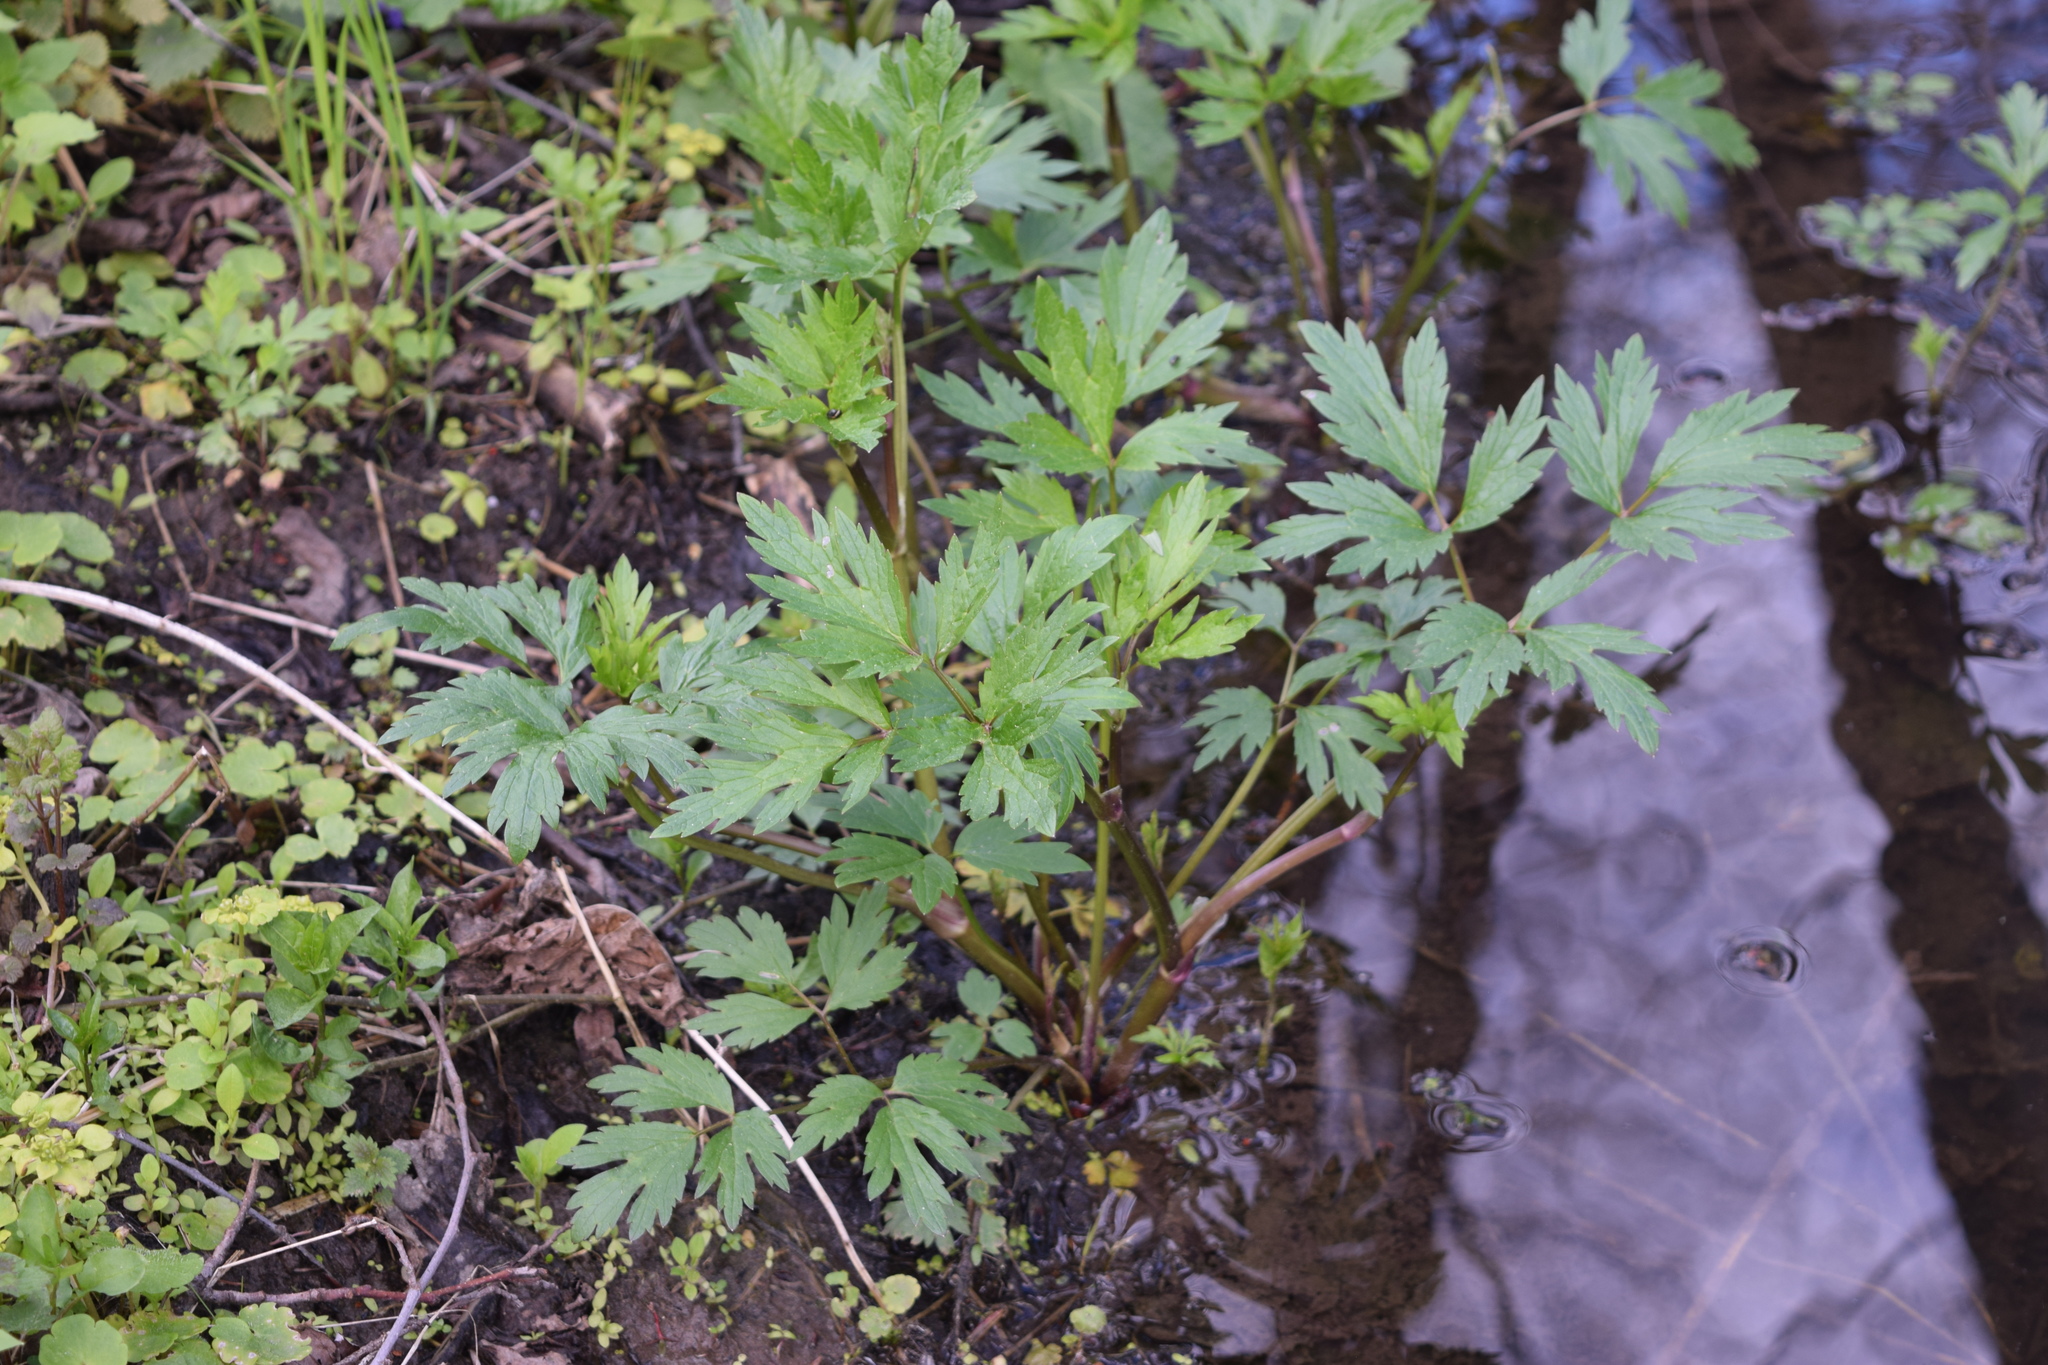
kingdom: Plantae
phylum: Tracheophyta
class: Magnoliopsida
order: Ranunculales
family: Ranunculaceae
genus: Ranunculus
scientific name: Ranunculus repens
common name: Creeping buttercup
